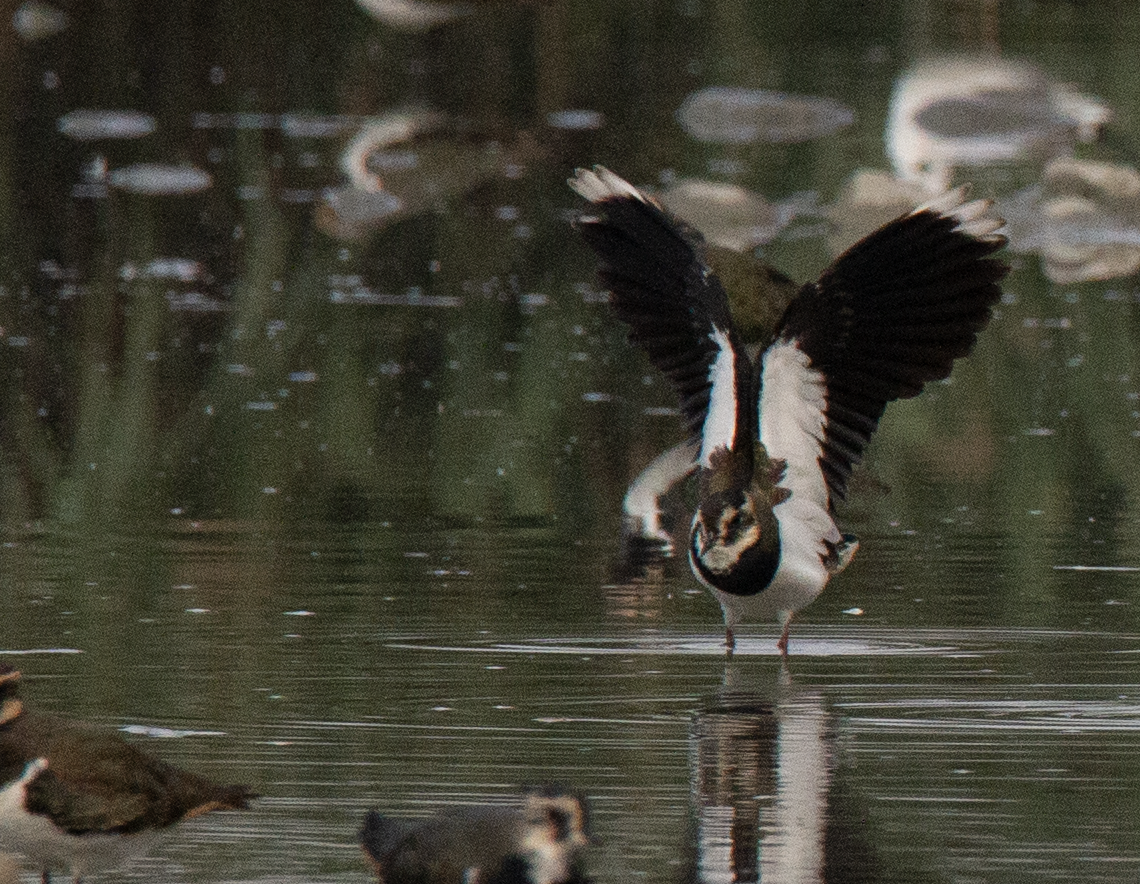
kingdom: Animalia
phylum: Chordata
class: Aves
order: Charadriiformes
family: Charadriidae
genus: Vanellus
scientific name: Vanellus vanellus
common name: Northern lapwing
